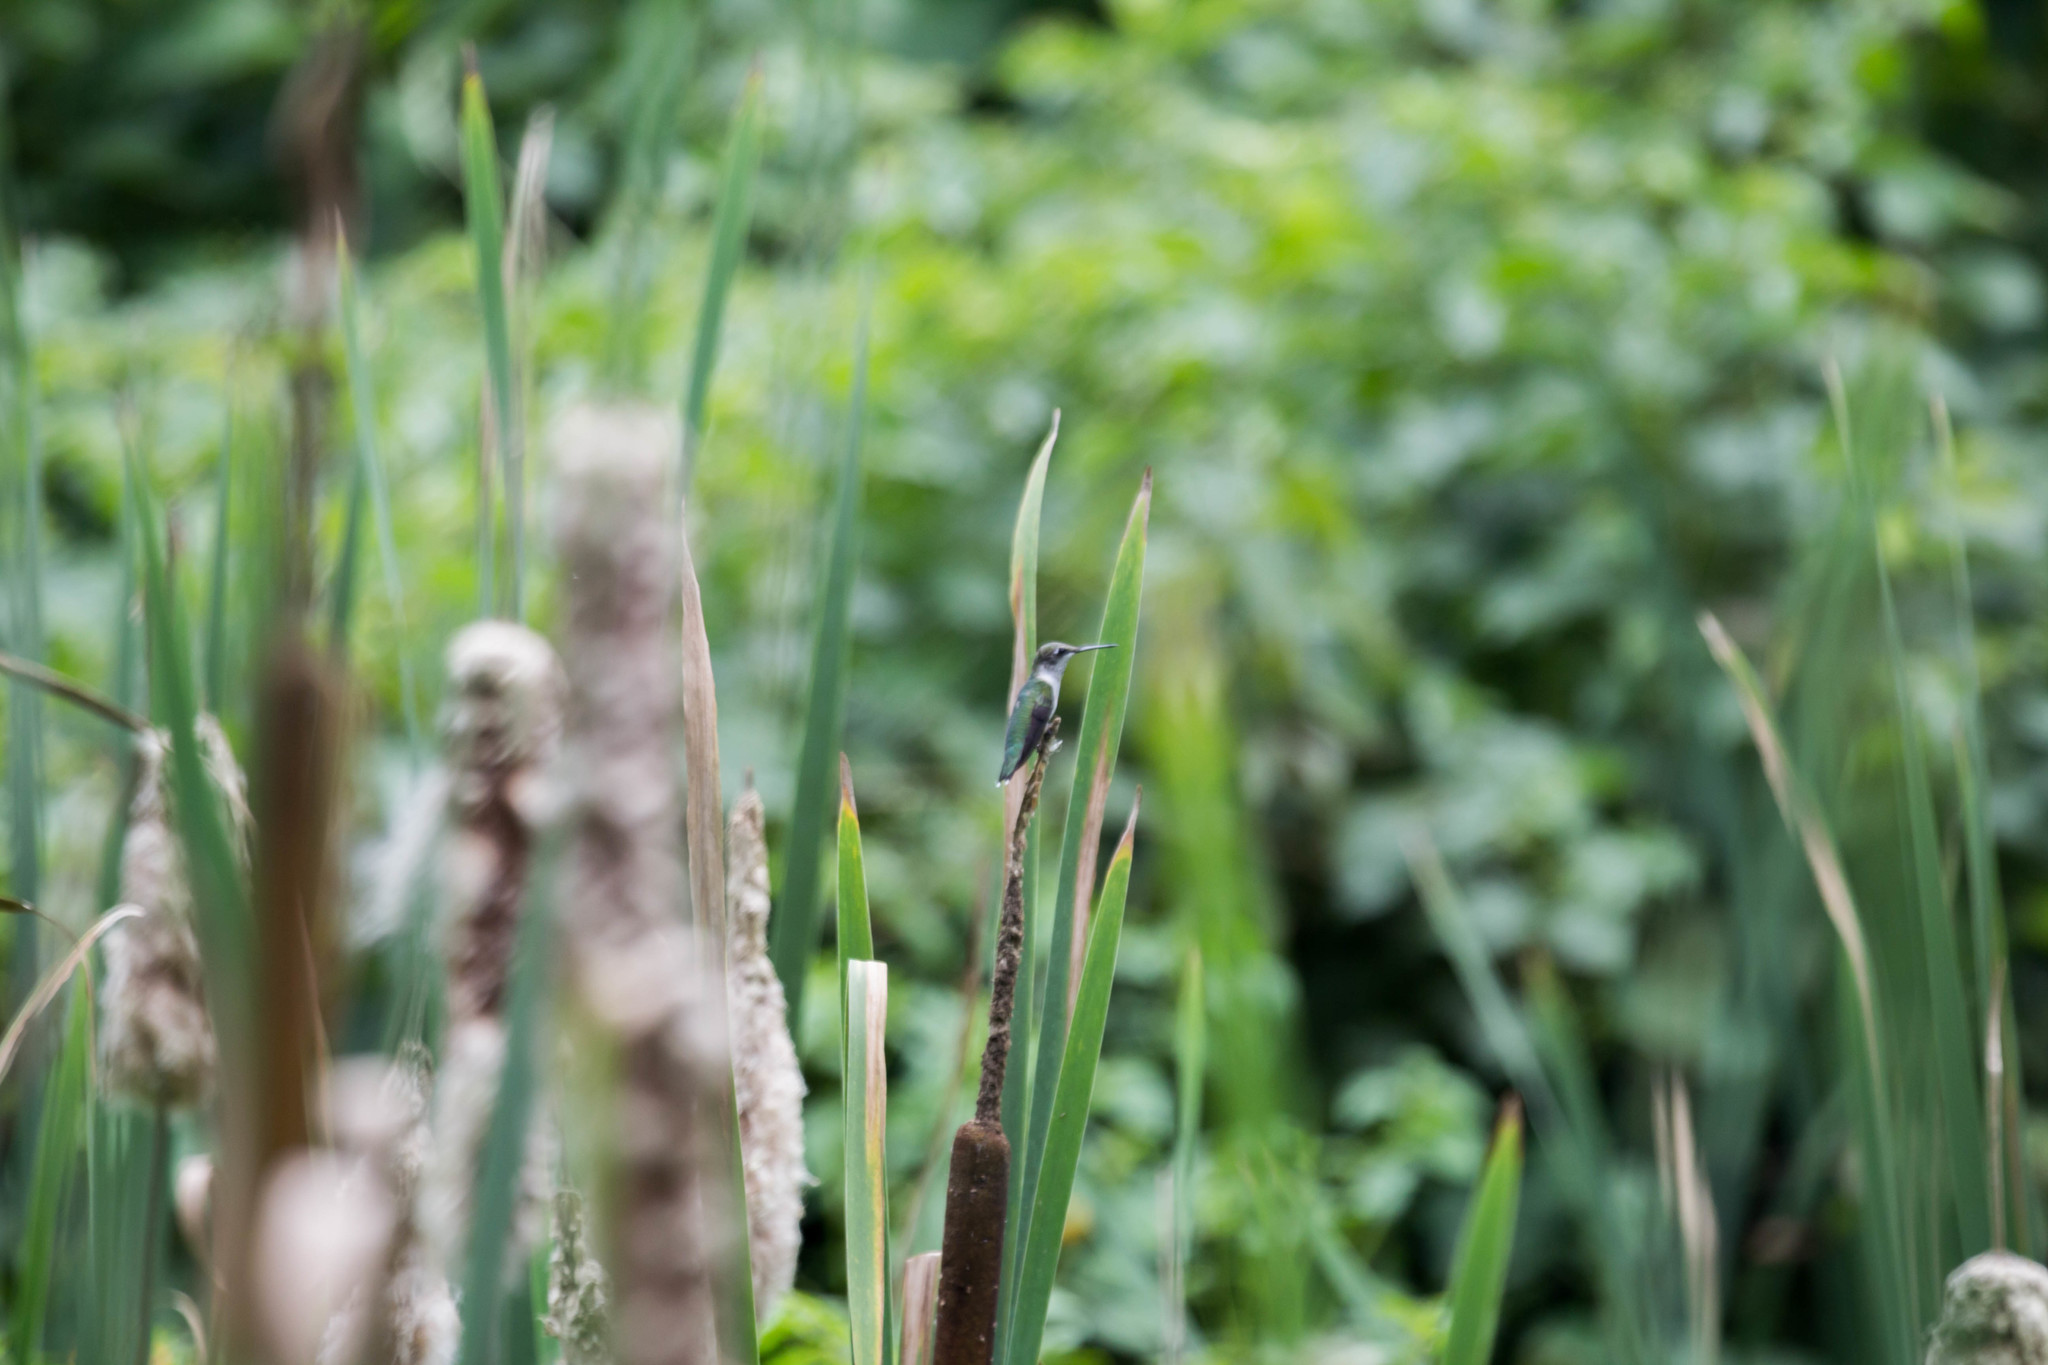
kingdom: Animalia
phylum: Chordata
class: Aves
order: Apodiformes
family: Trochilidae
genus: Archilochus
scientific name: Archilochus colubris
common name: Ruby-throated hummingbird
